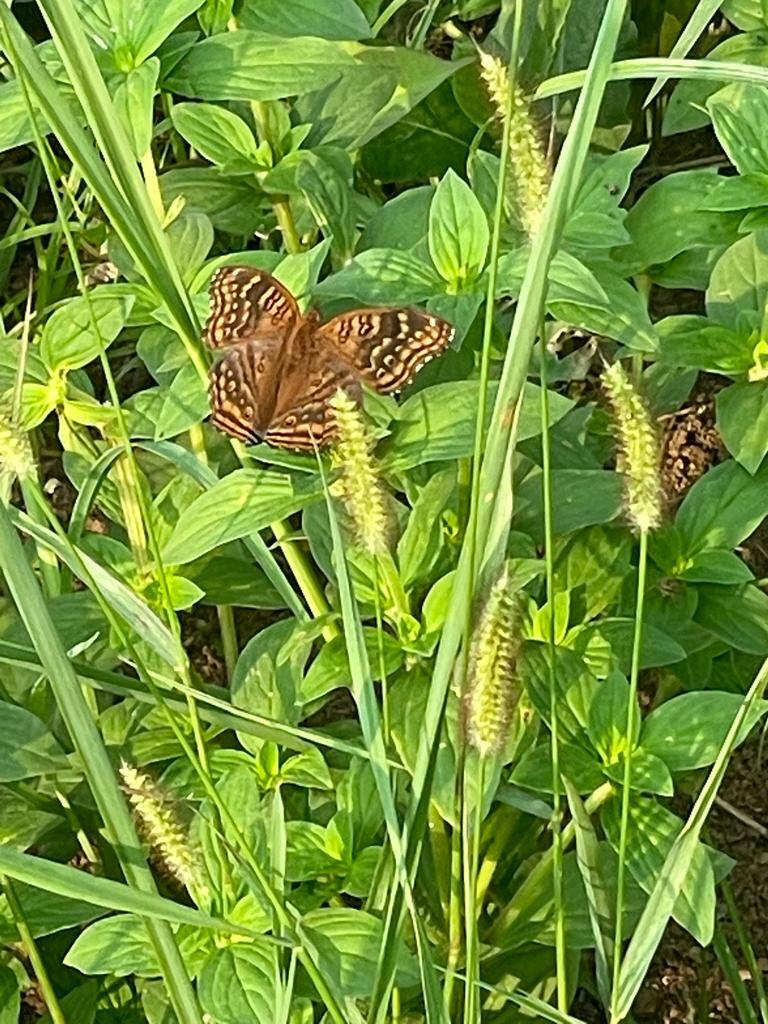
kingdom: Animalia
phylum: Arthropoda
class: Insecta
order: Lepidoptera
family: Nymphalidae
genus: Junonia
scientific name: Junonia chorimene
